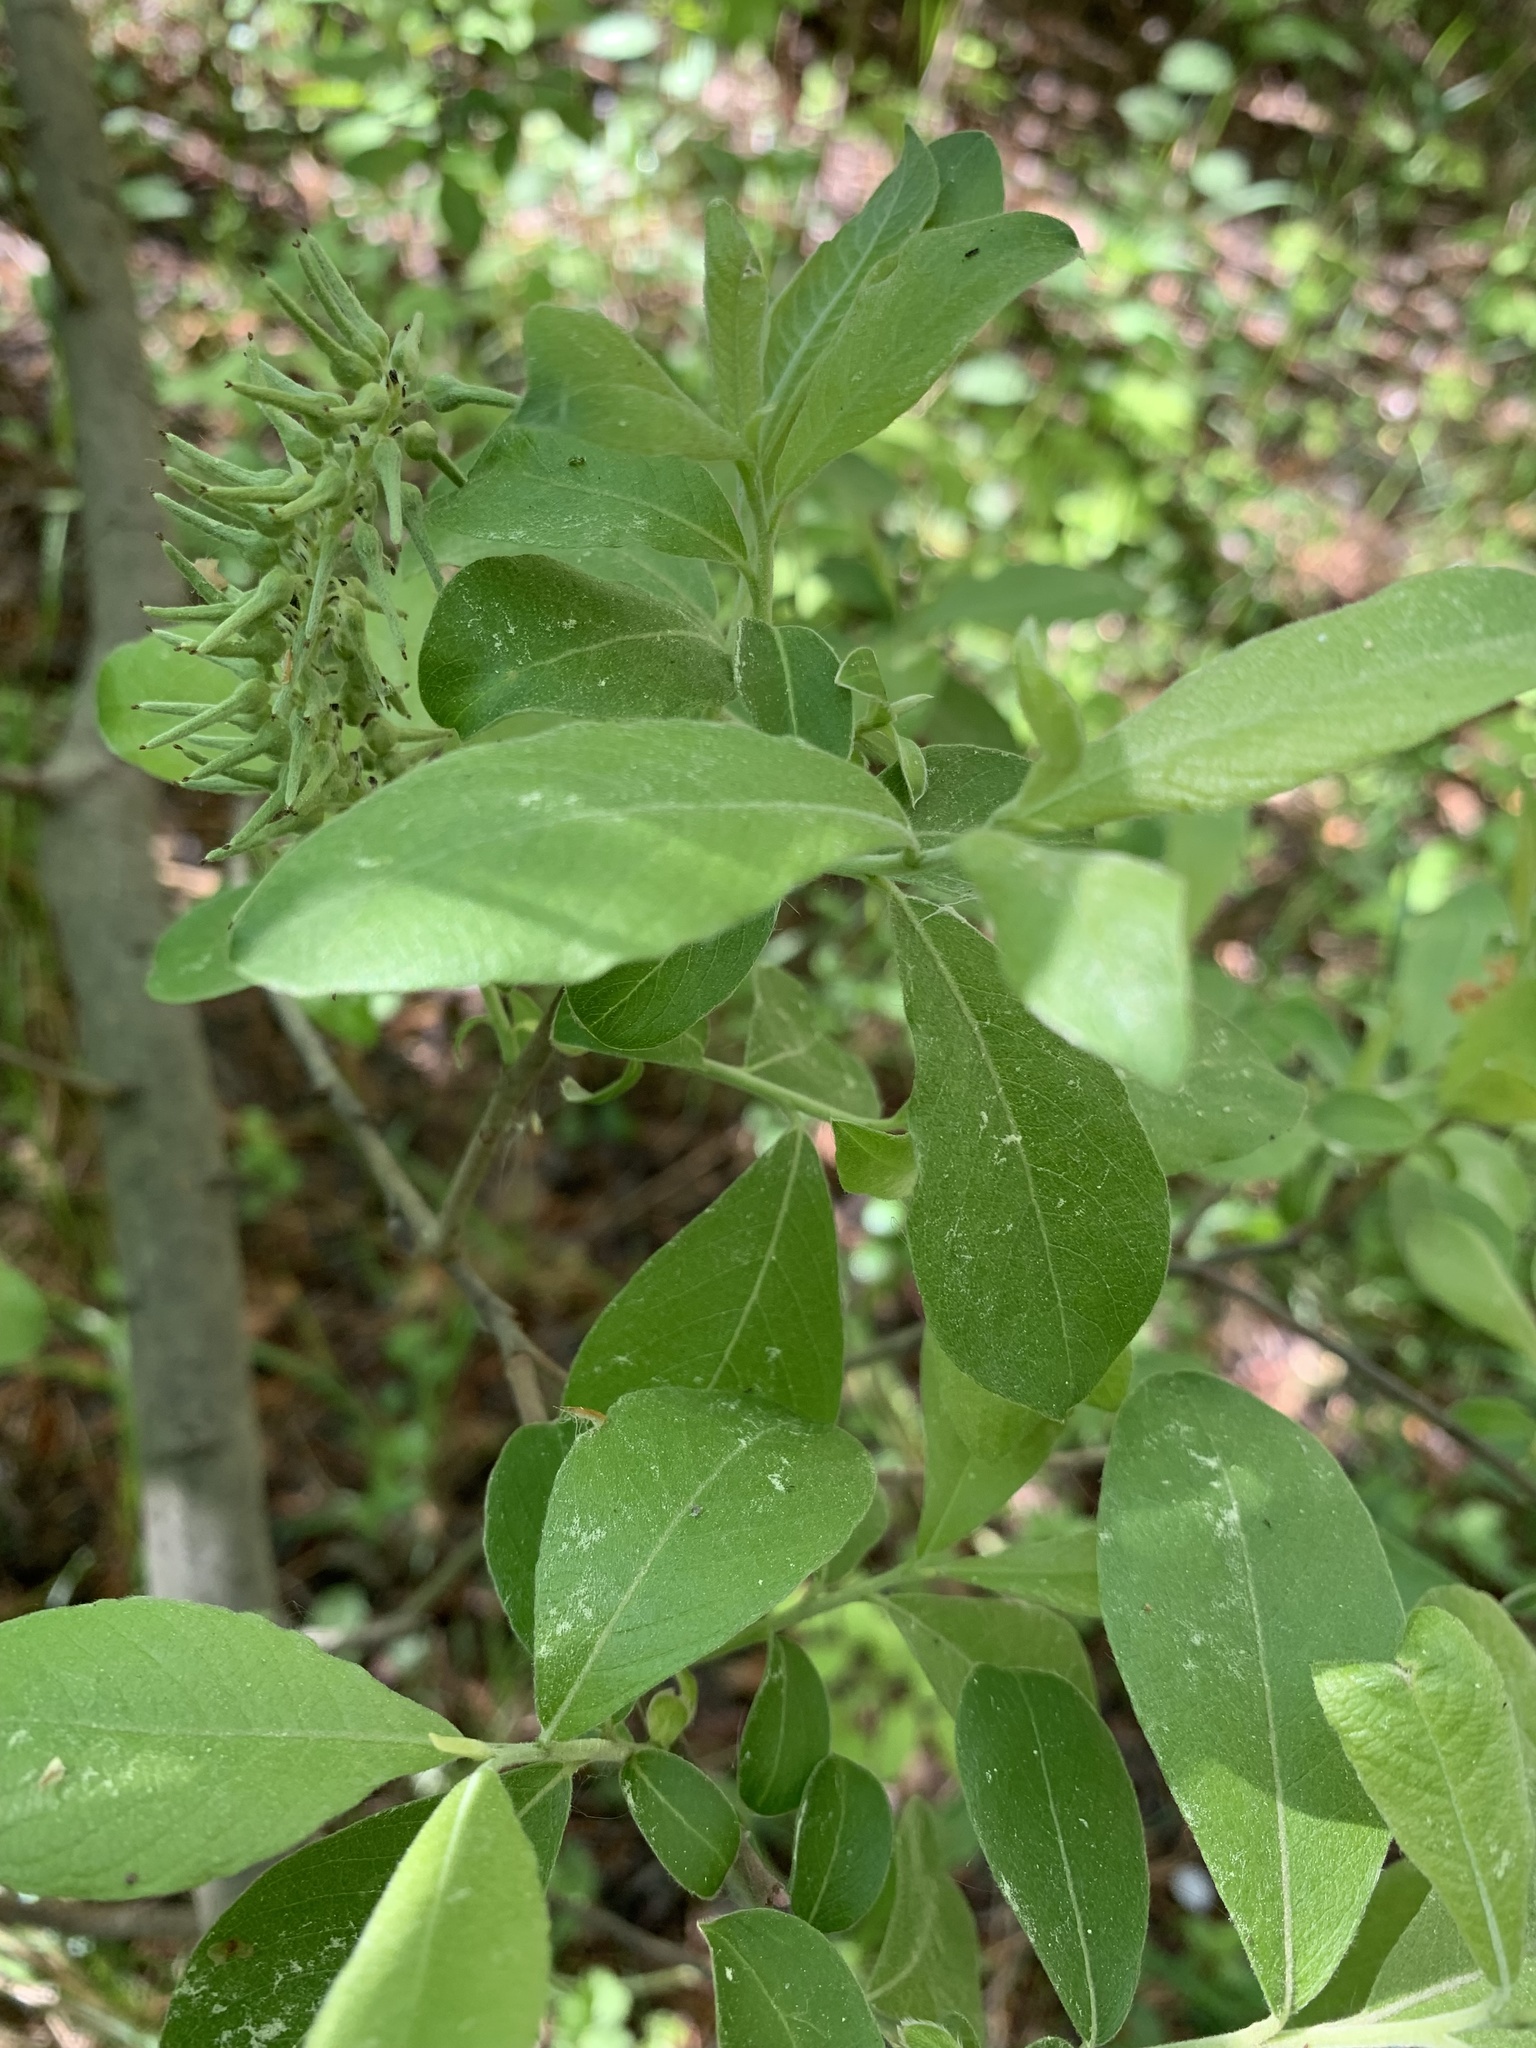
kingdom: Plantae
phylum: Tracheophyta
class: Magnoliopsida
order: Malpighiales
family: Salicaceae
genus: Salix
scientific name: Salix cinerea
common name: Common sallow
